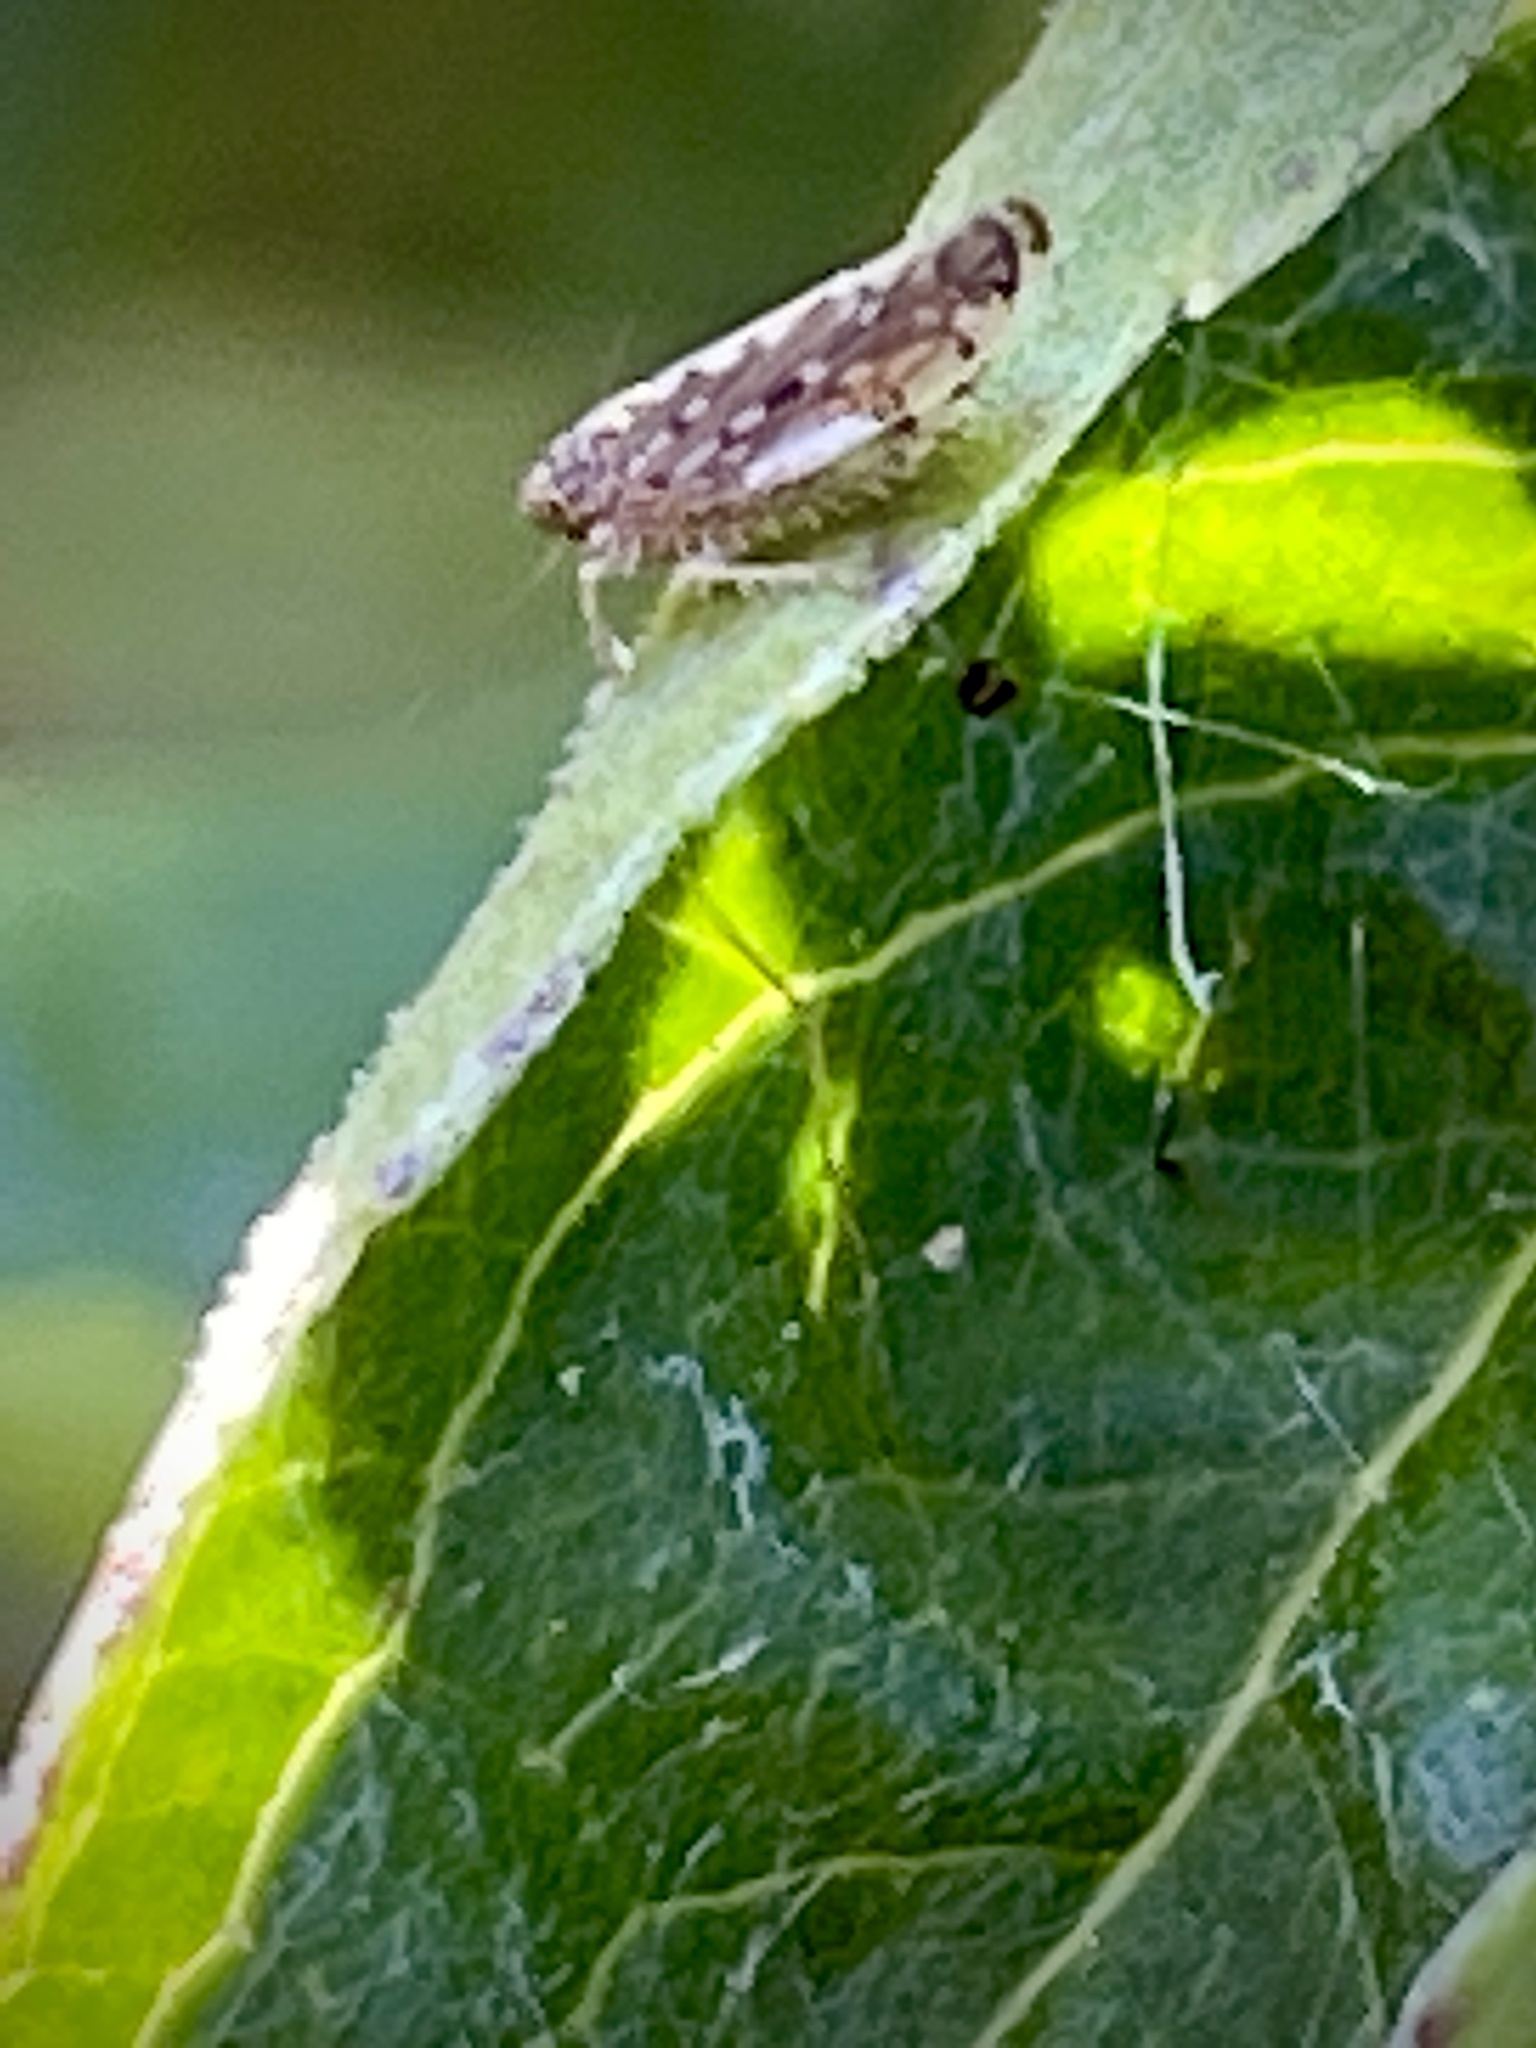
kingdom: Animalia
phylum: Arthropoda
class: Insecta
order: Hemiptera
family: Cicadellidae
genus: Osbornellus
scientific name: Osbornellus clarus
